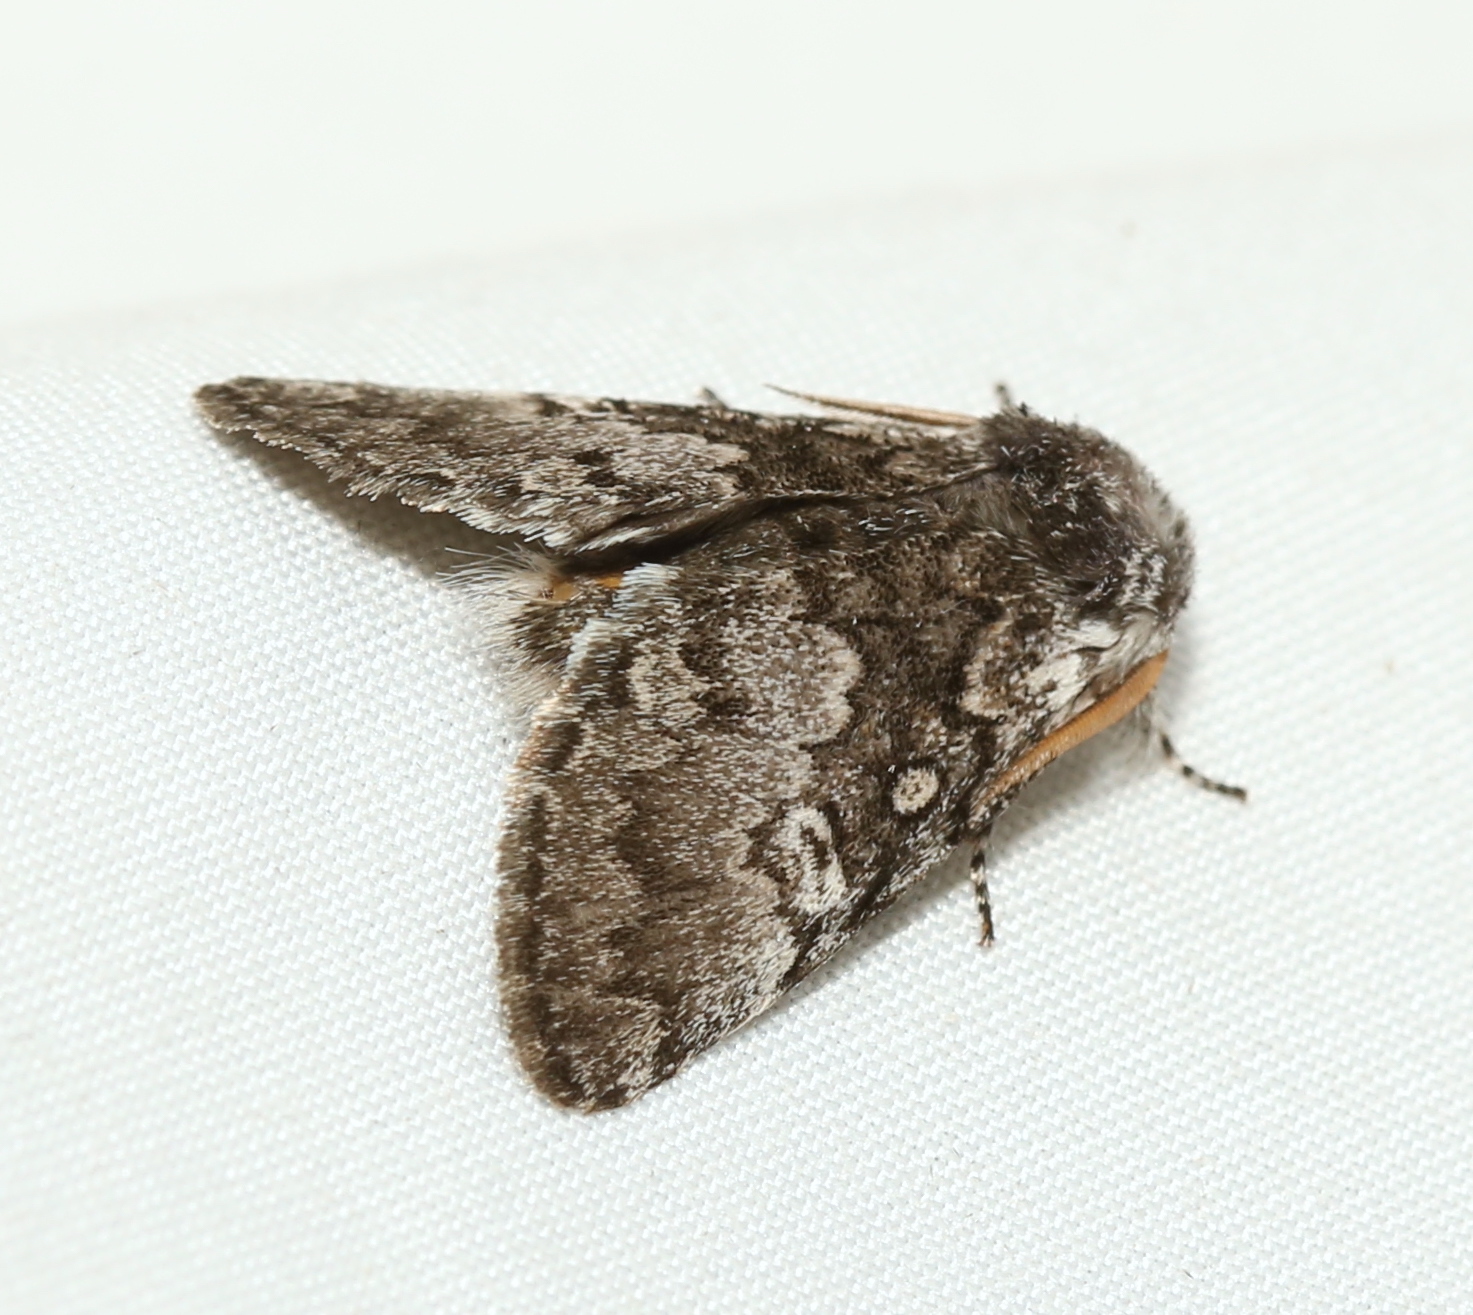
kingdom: Animalia
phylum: Arthropoda
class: Insecta
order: Lepidoptera
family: Noctuidae
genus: Colocasia
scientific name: Colocasia propinquilinea
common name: Close-banded demas
